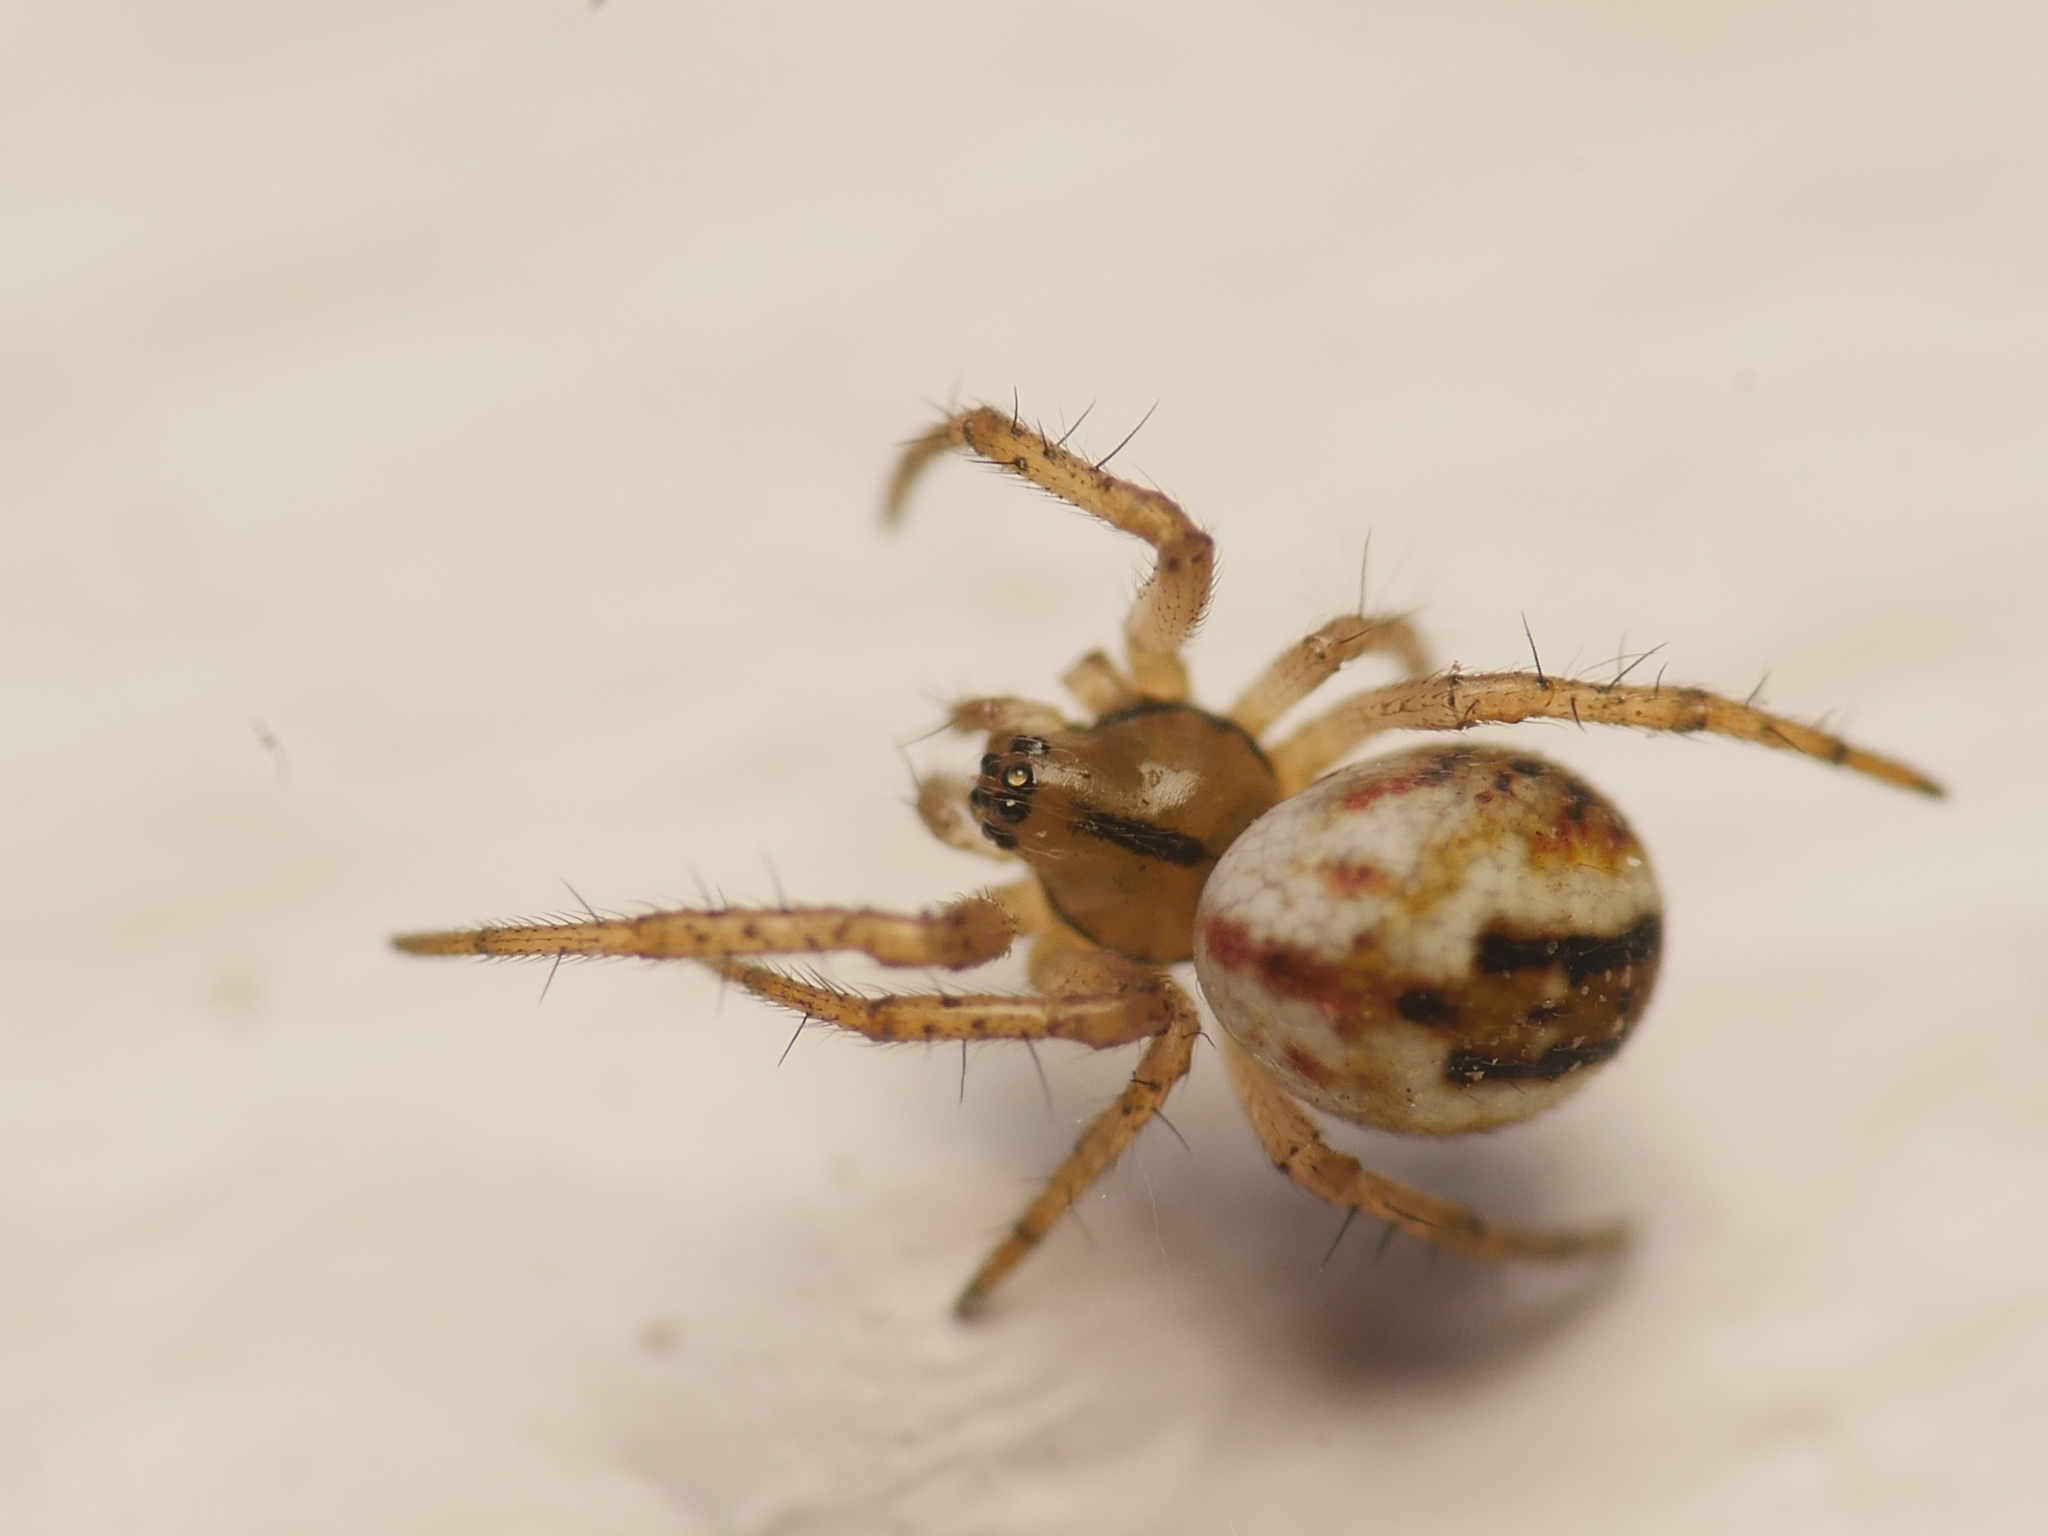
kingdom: Animalia
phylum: Arthropoda
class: Arachnida
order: Araneae
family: Araneidae
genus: Mangora
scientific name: Mangora acalypha
